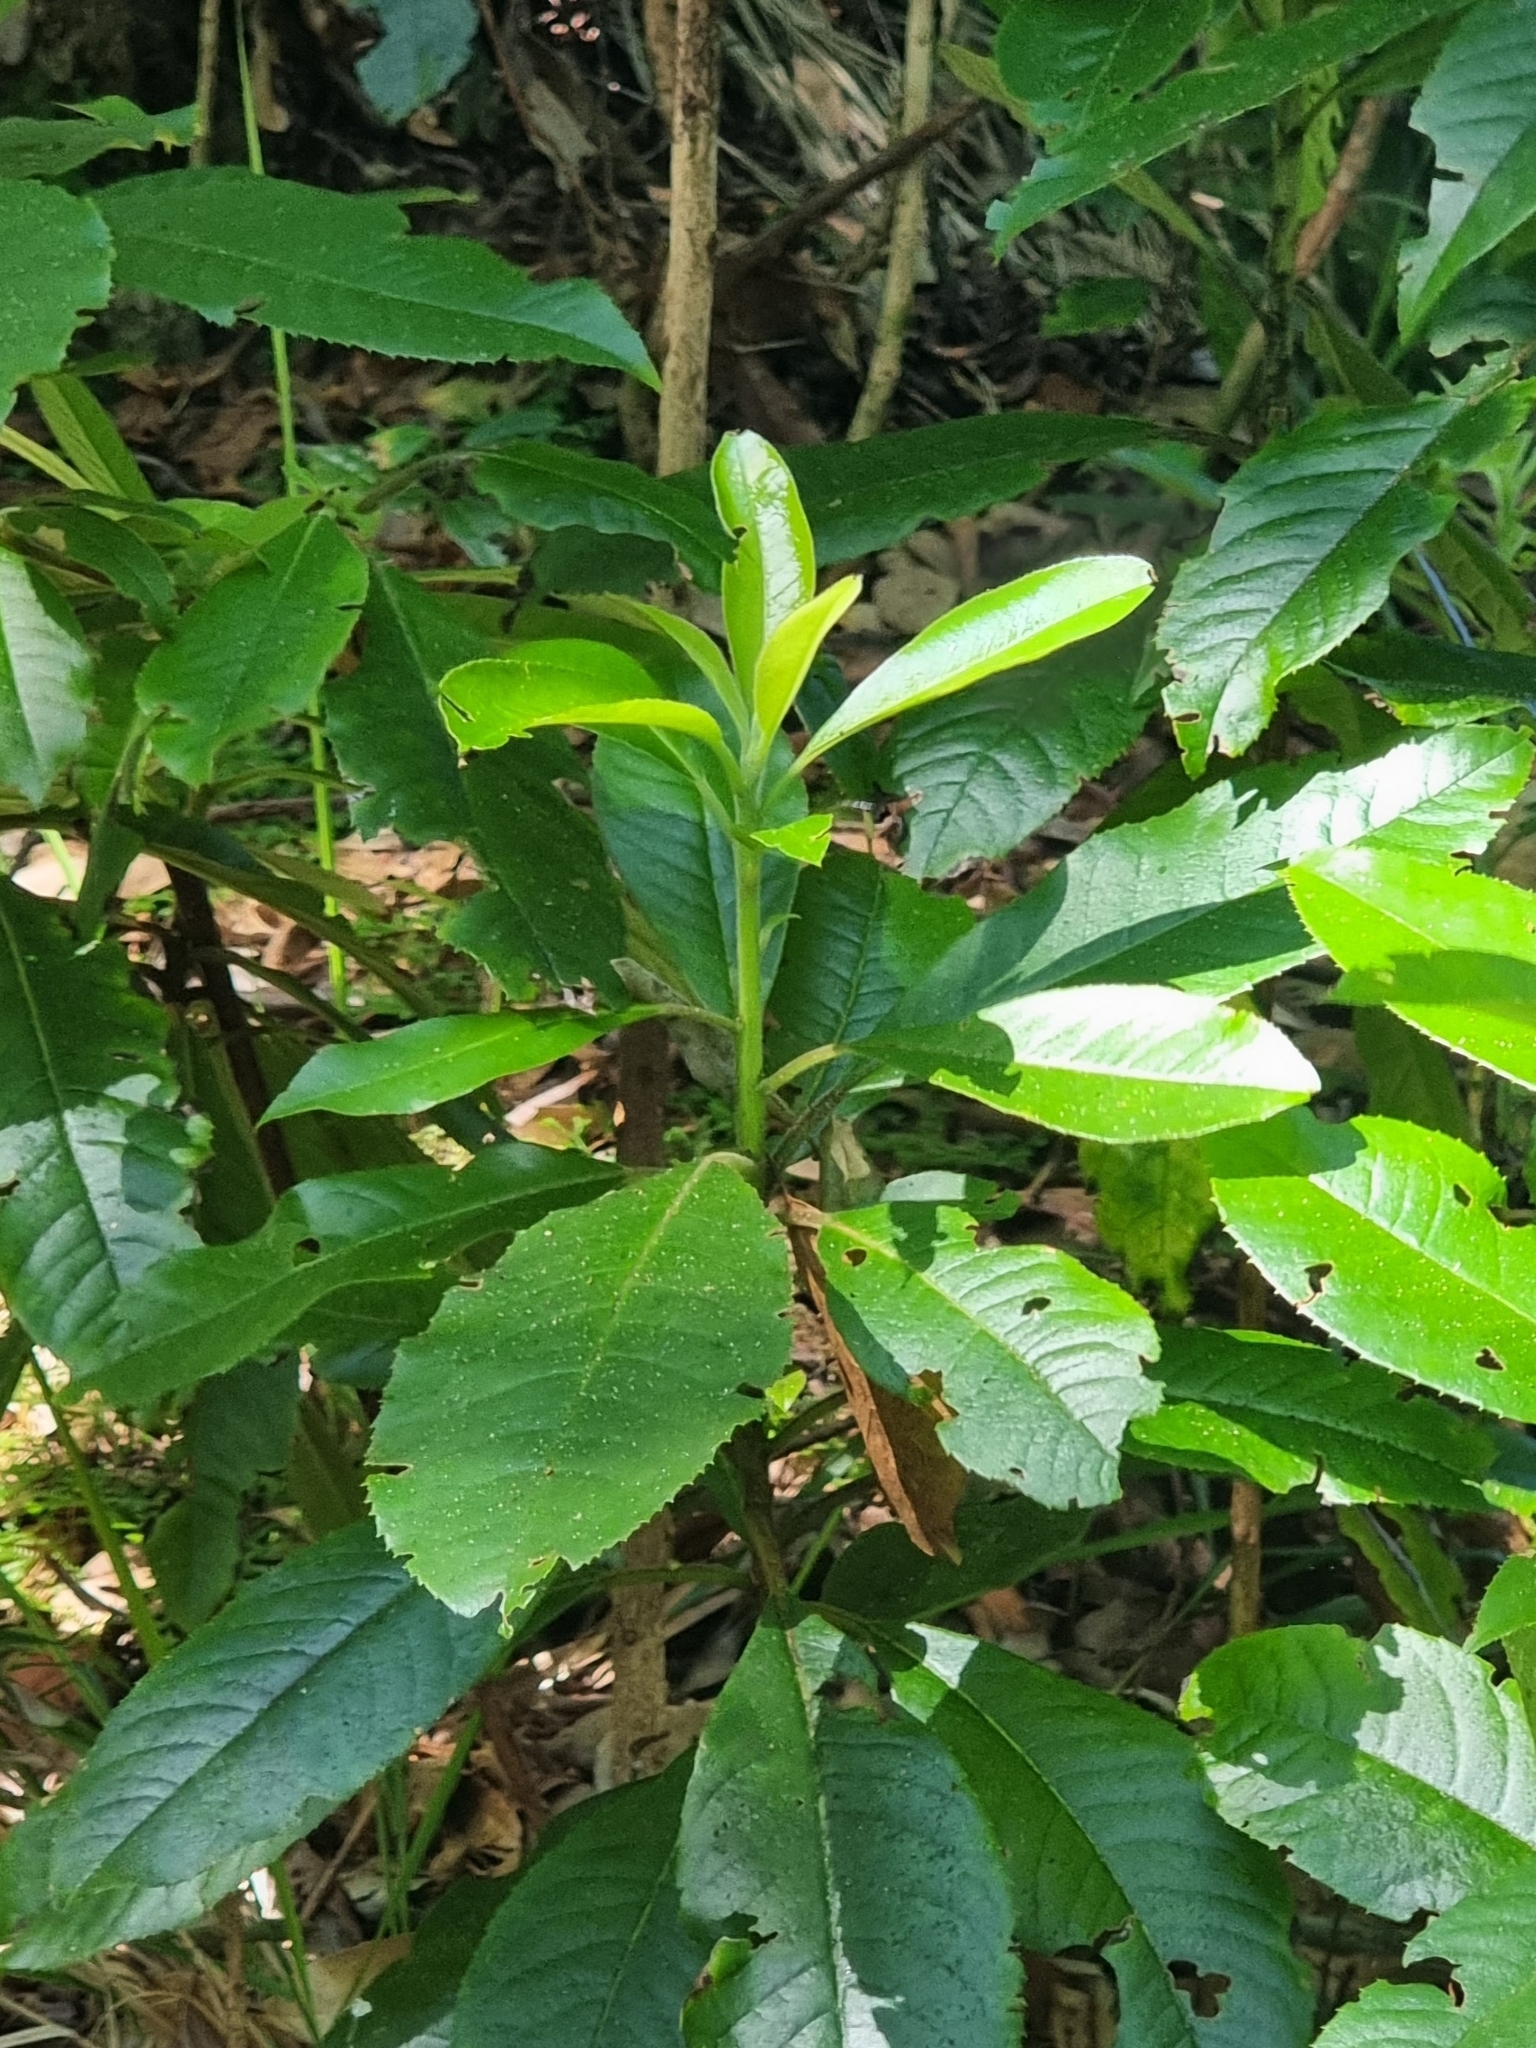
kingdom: Plantae
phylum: Tracheophyta
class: Magnoliopsida
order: Ericales
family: Clethraceae
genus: Clethra
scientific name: Clethra arborea
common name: Lily-of-the-valley-tree
